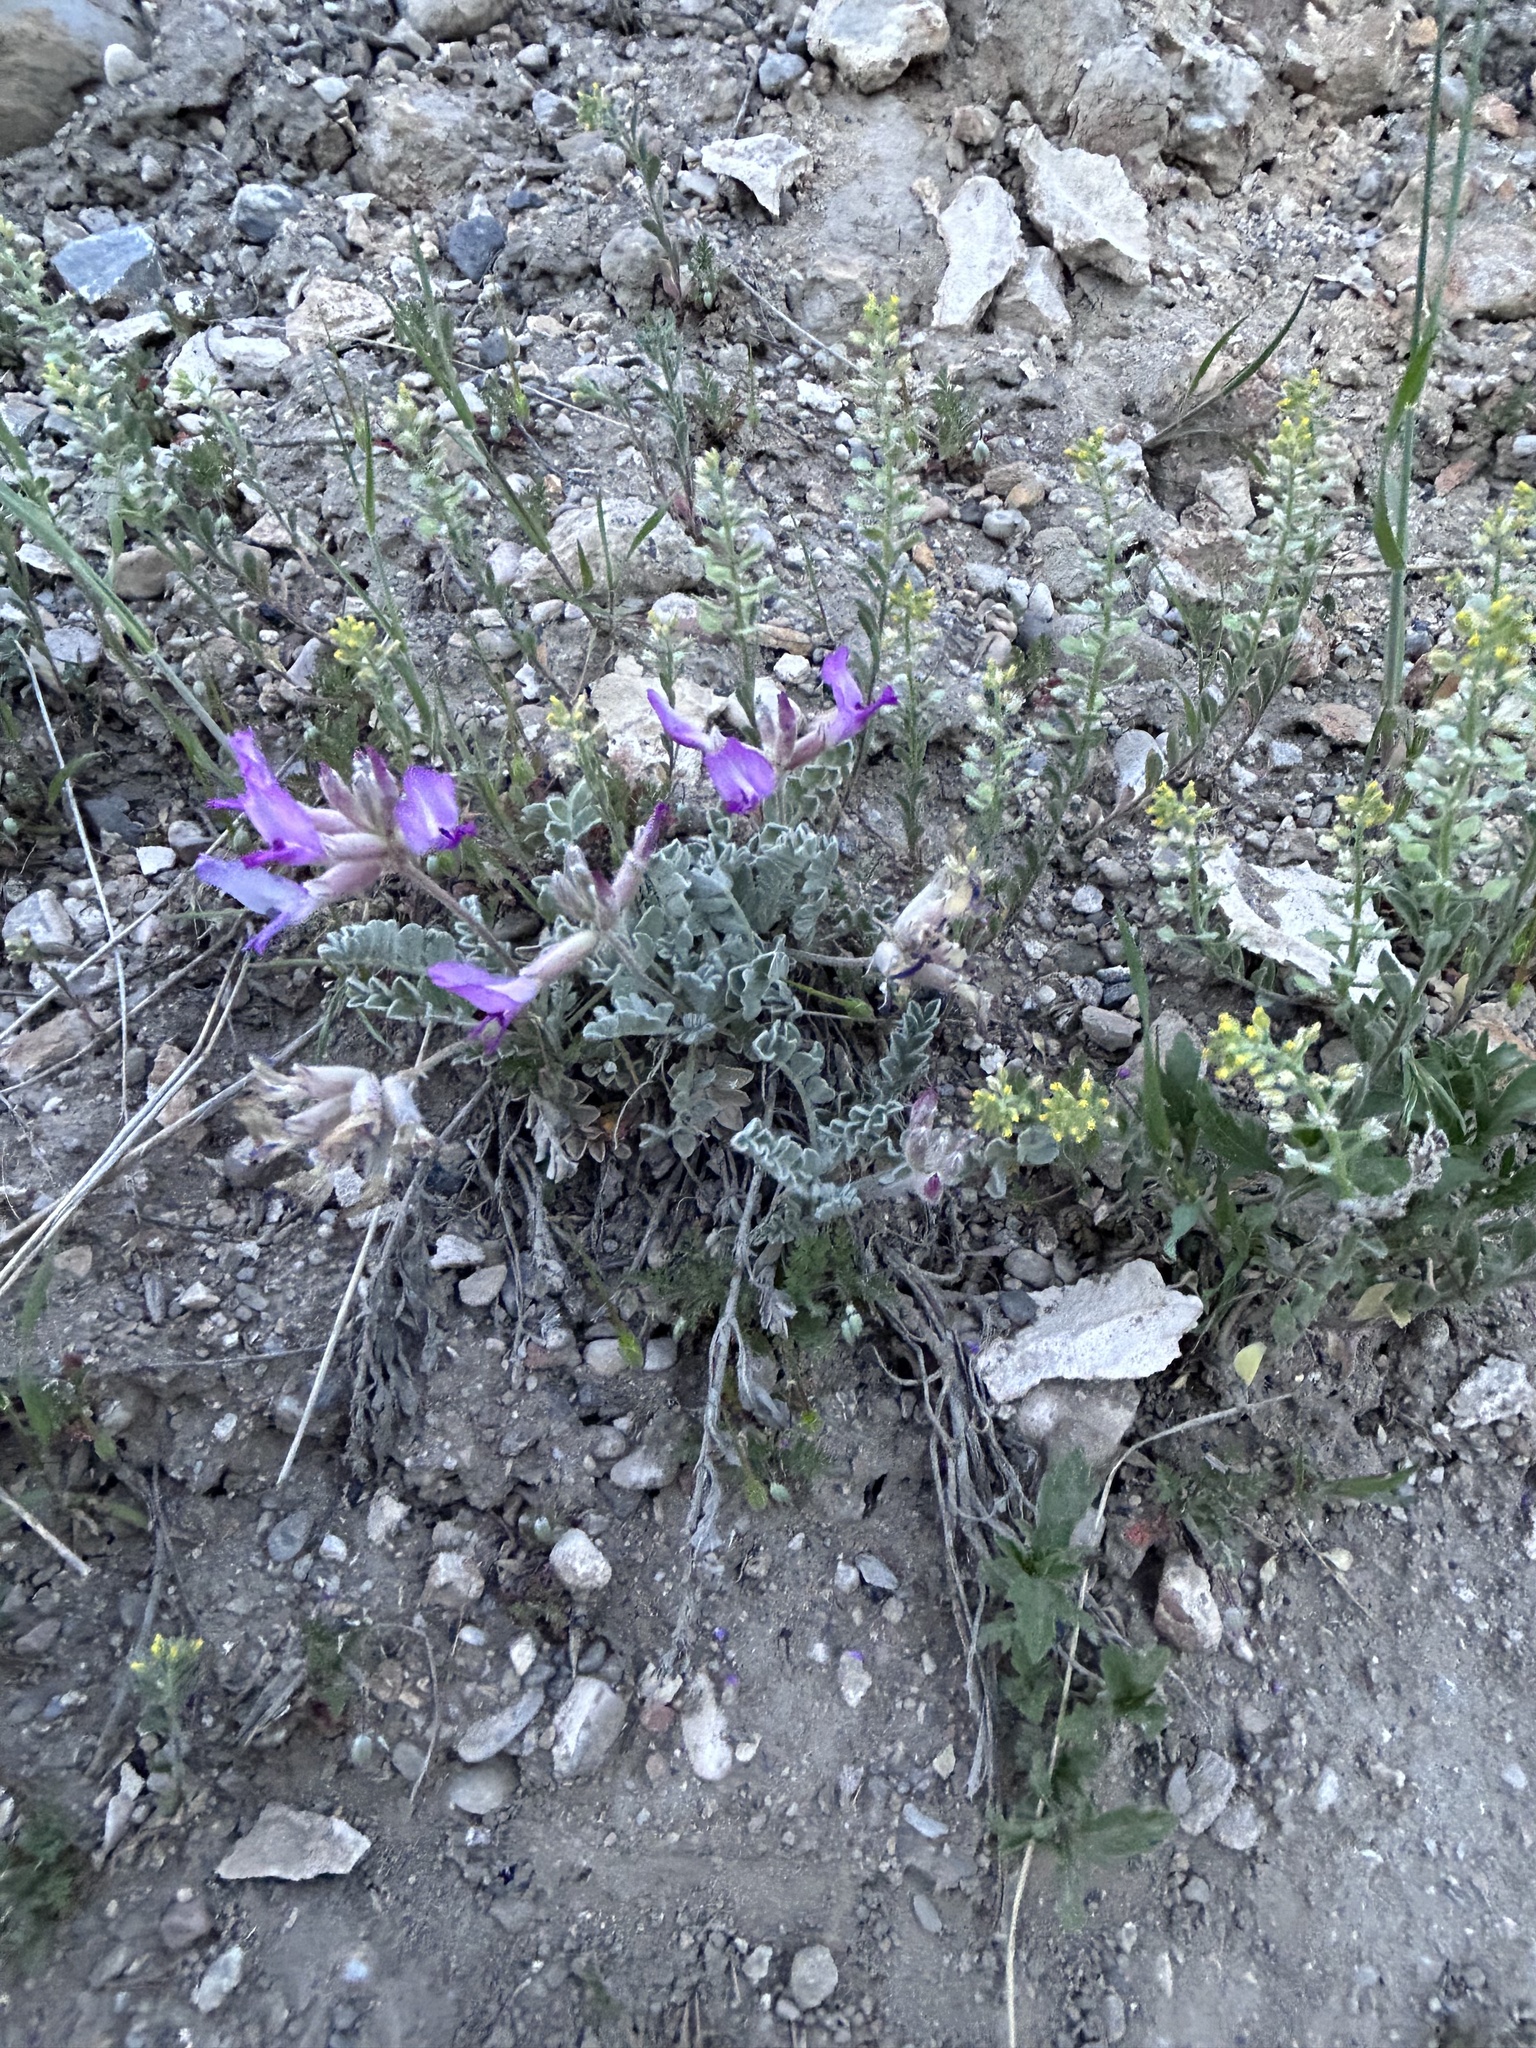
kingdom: Plantae
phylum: Tracheophyta
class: Magnoliopsida
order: Fabales
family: Fabaceae
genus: Astragalus
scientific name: Astragalus utahensis
